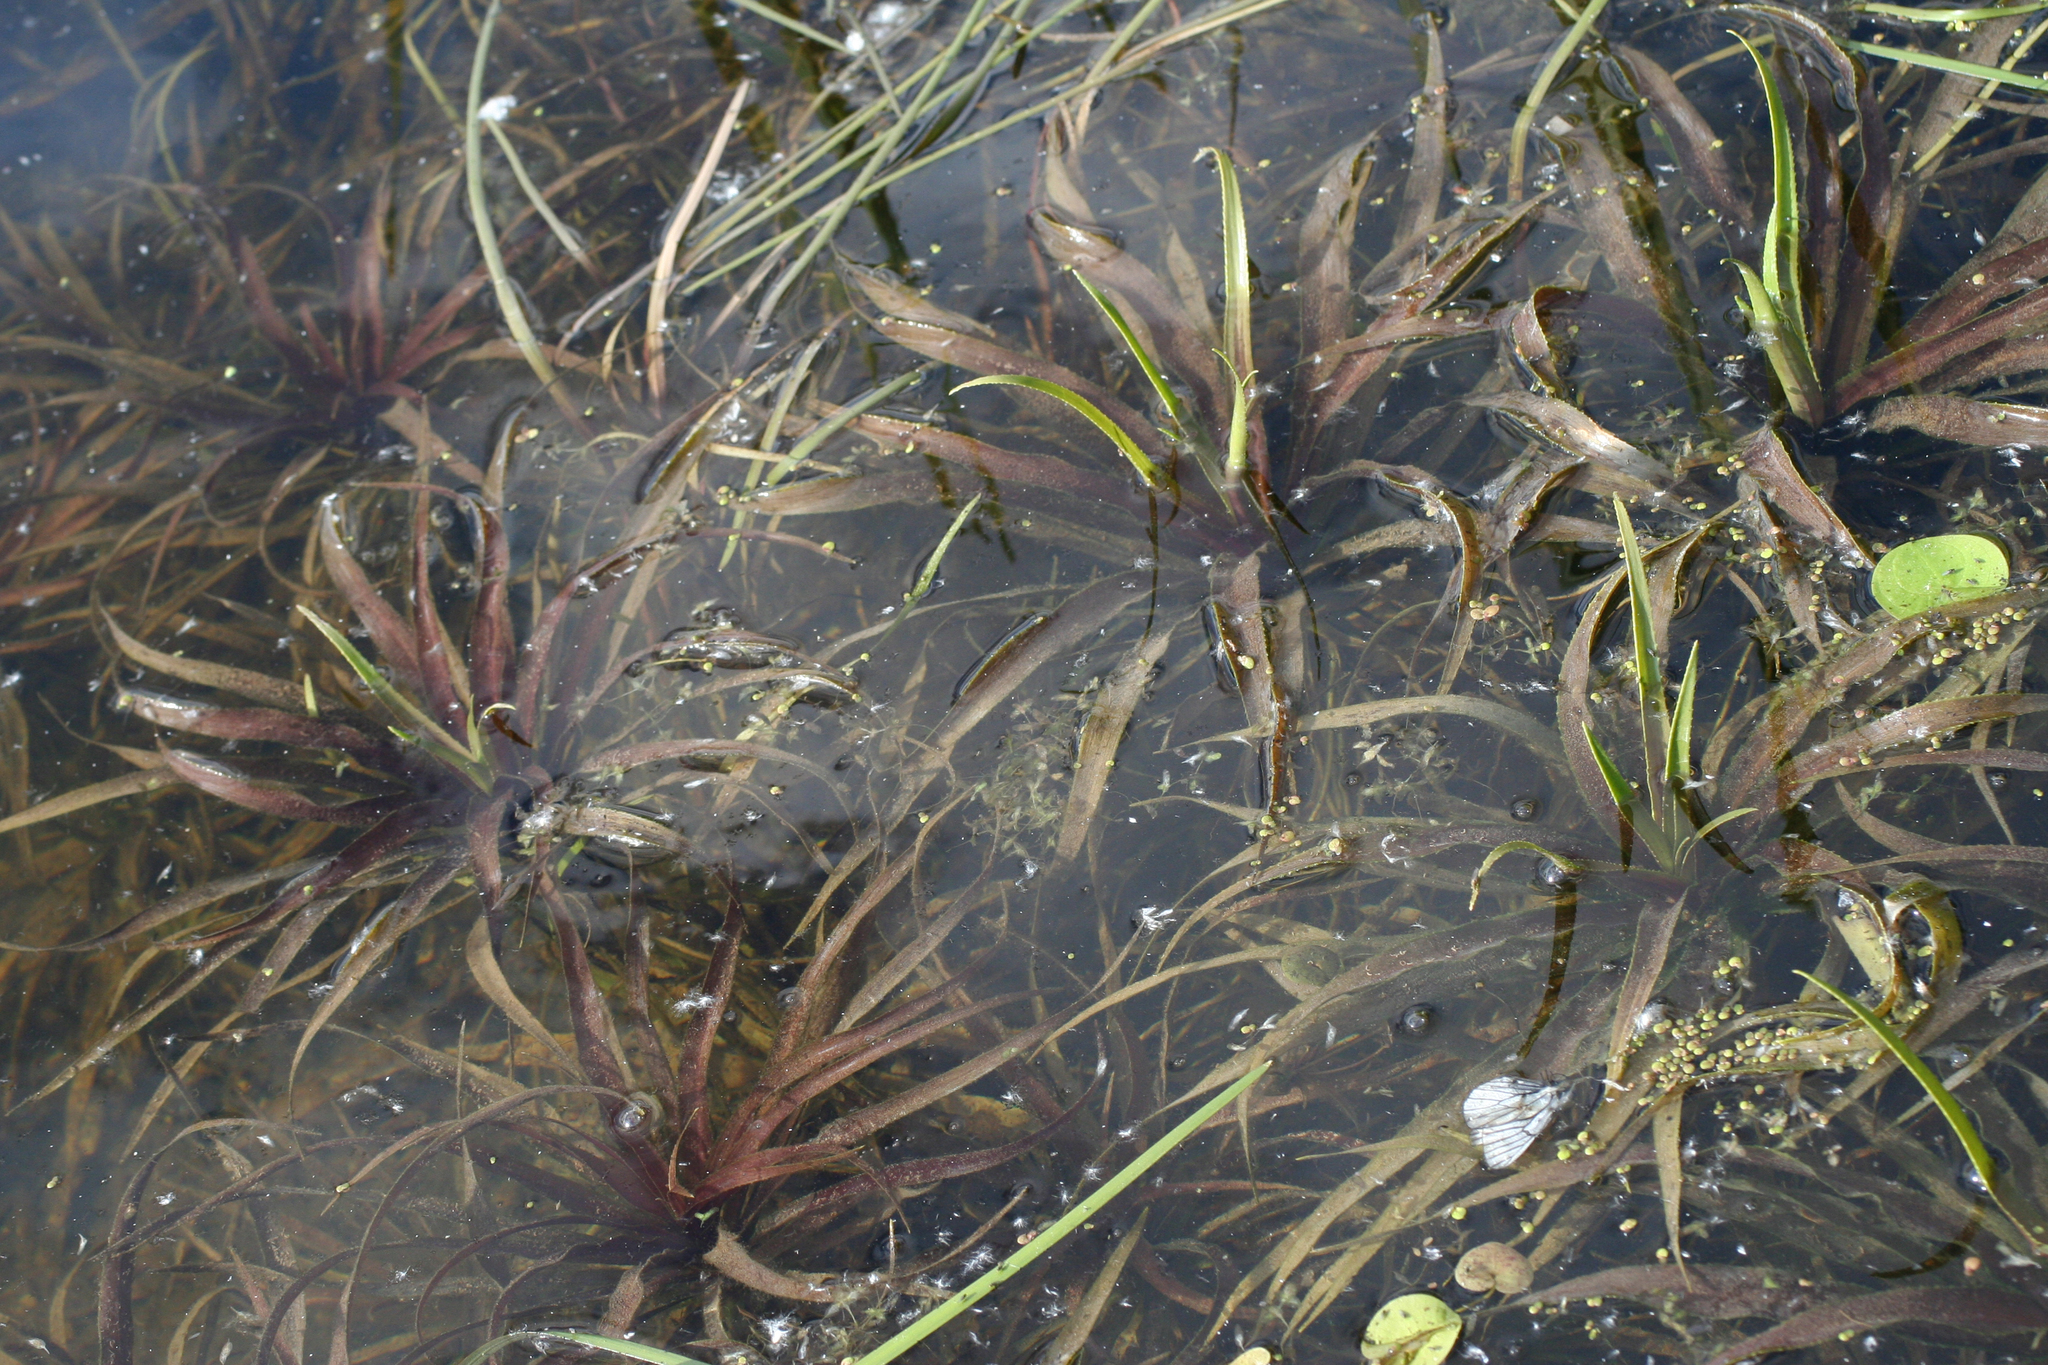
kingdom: Plantae
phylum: Tracheophyta
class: Liliopsida
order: Alismatales
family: Hydrocharitaceae
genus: Stratiotes
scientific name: Stratiotes aloides
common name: Water-soldier
